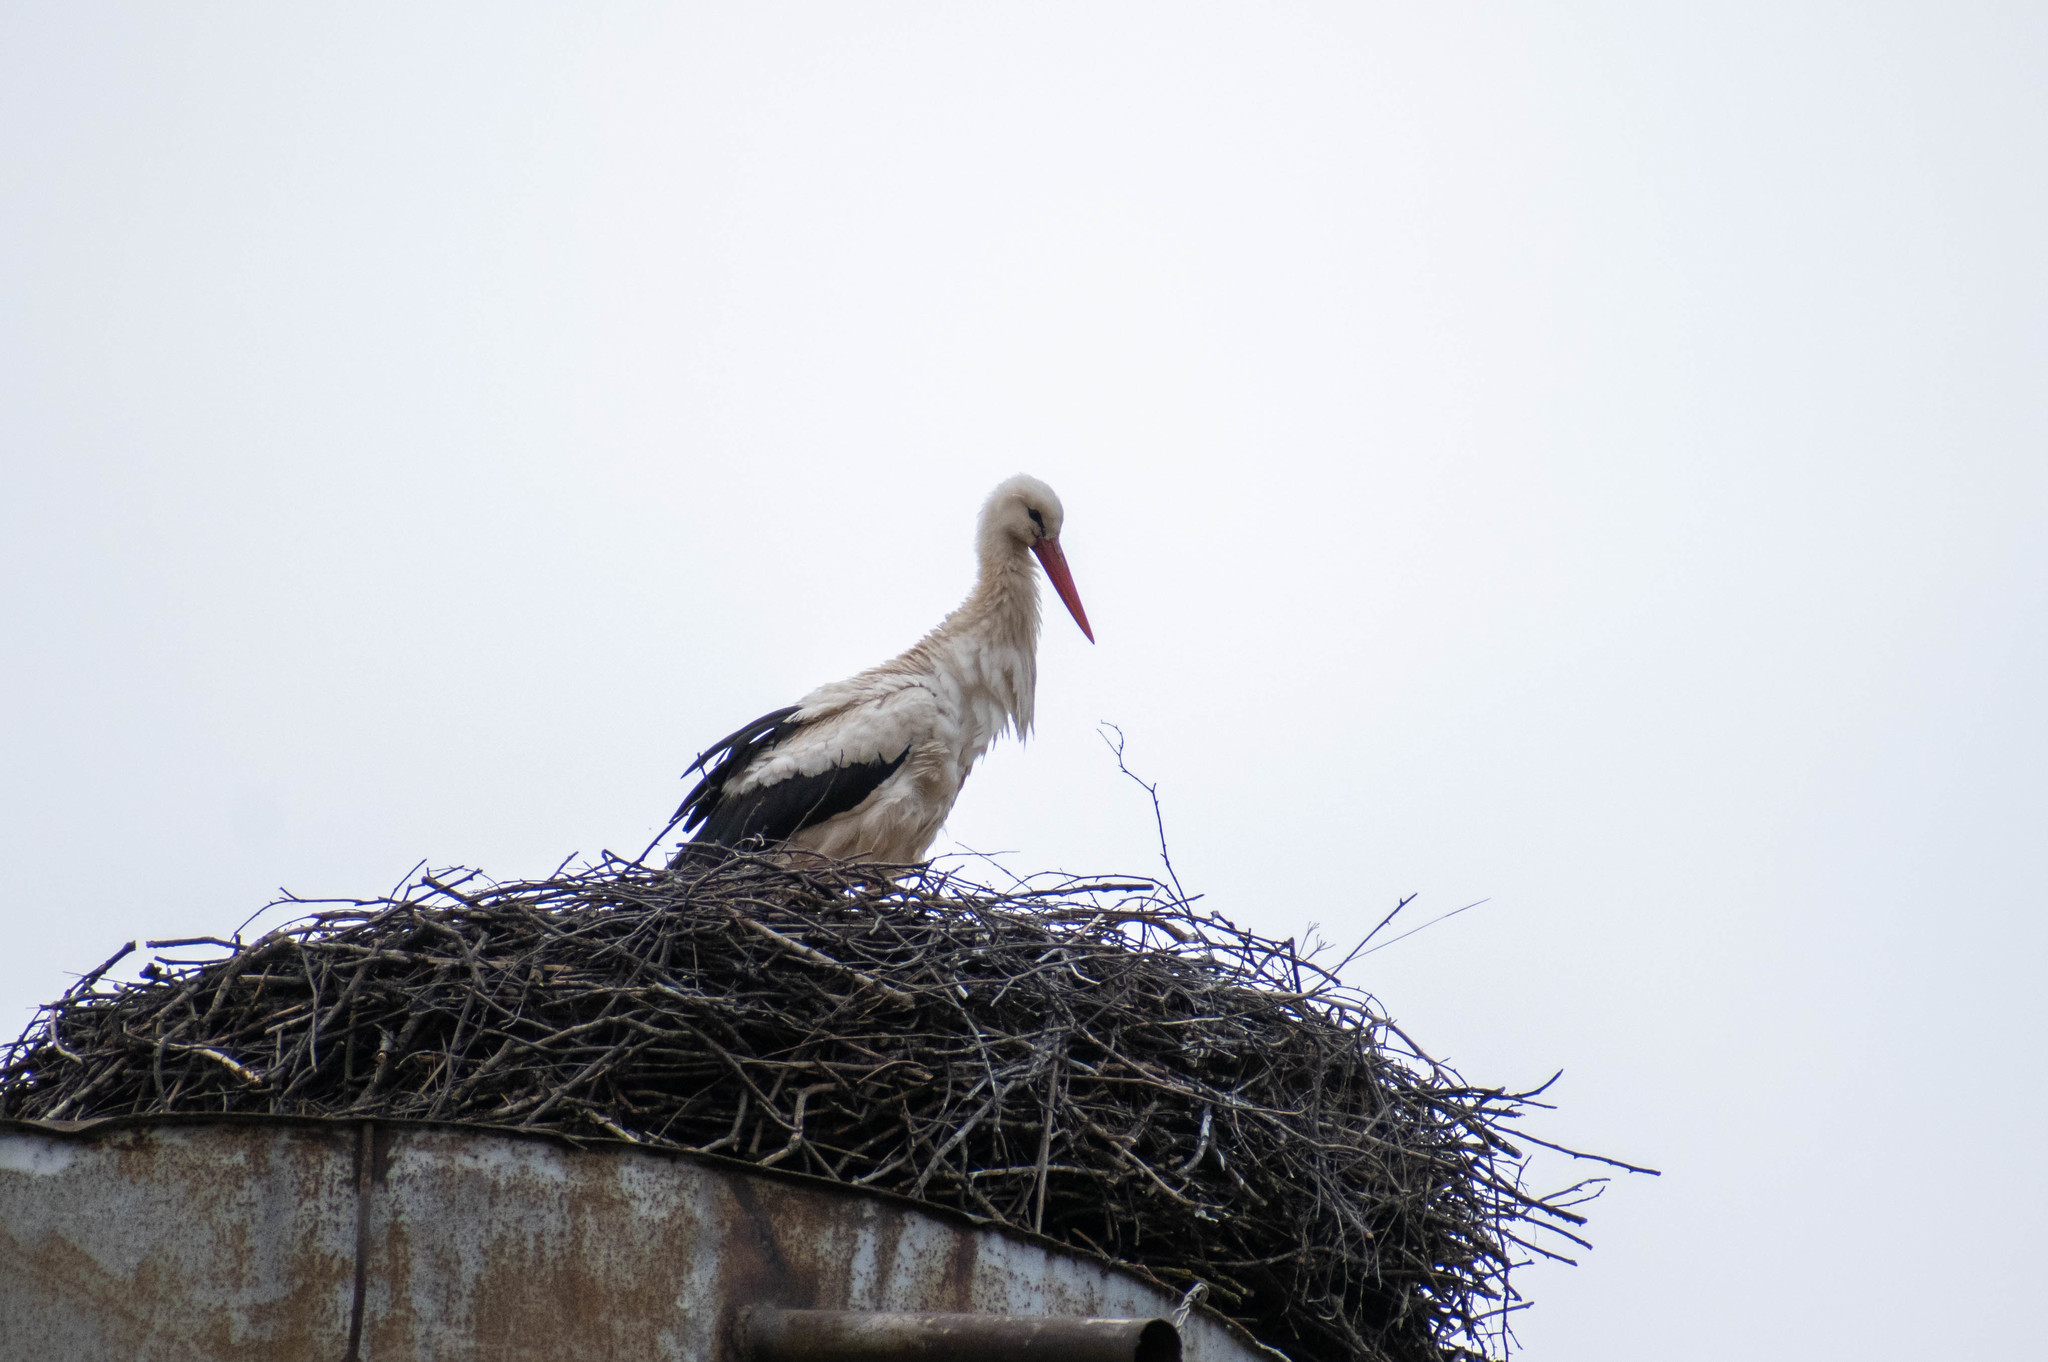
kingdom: Animalia
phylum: Chordata
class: Aves
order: Ciconiiformes
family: Ciconiidae
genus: Ciconia
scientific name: Ciconia ciconia
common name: White stork
